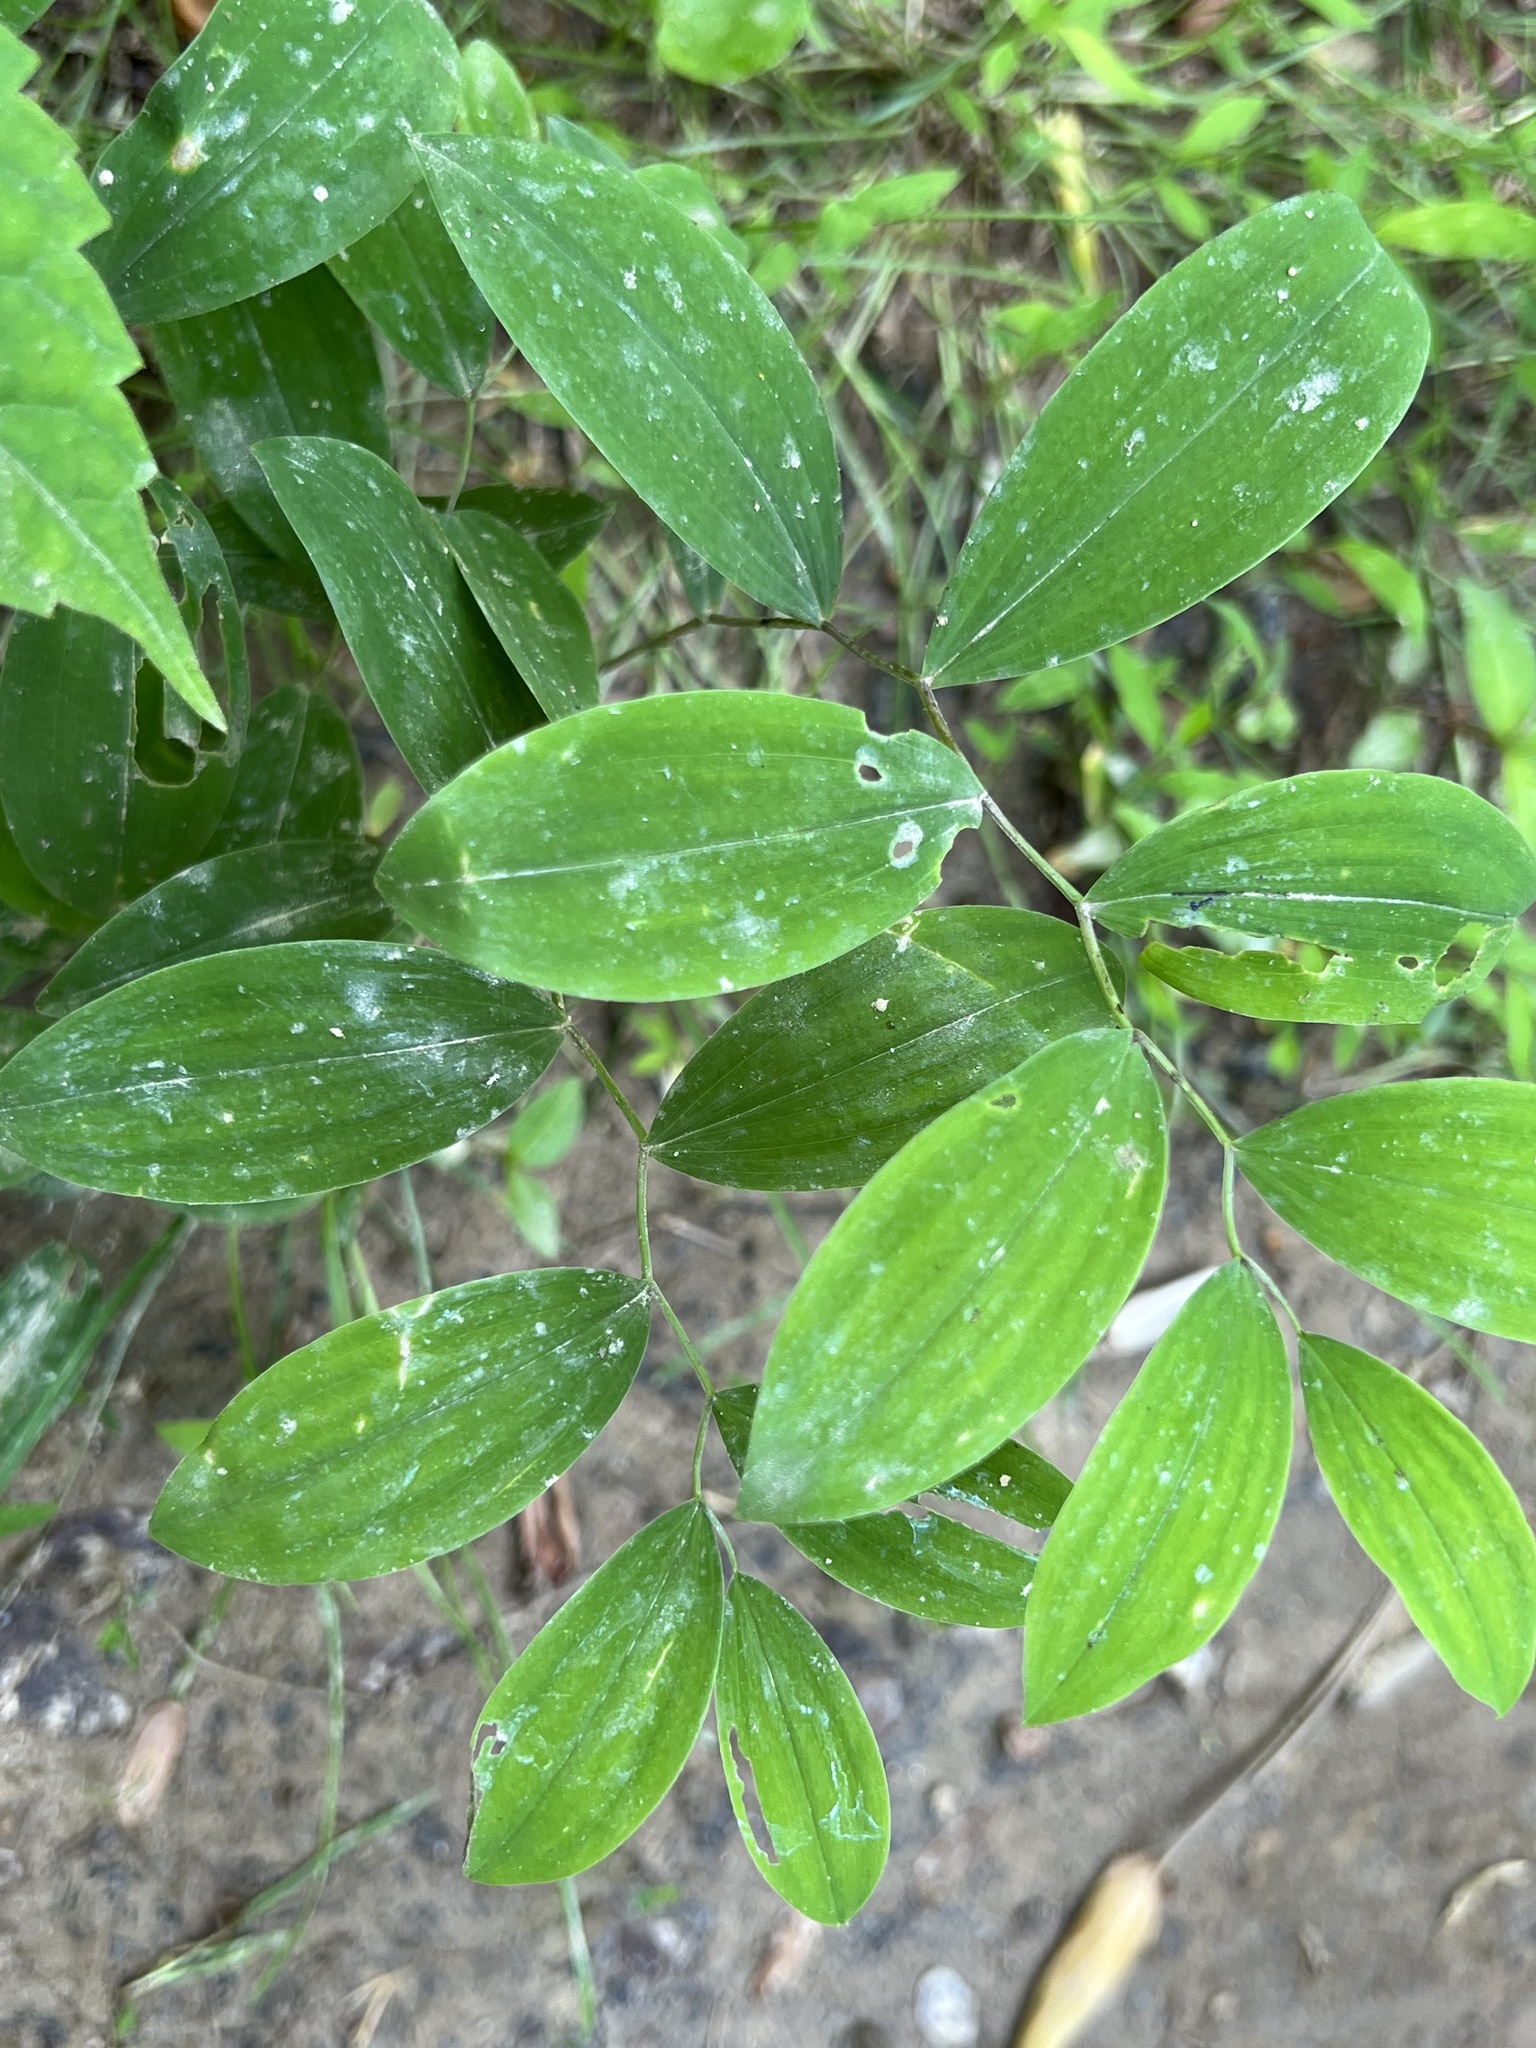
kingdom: Plantae
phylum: Tracheophyta
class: Liliopsida
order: Liliales
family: Colchicaceae
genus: Uvularia
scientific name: Uvularia sessilifolia
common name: Straw-lily
